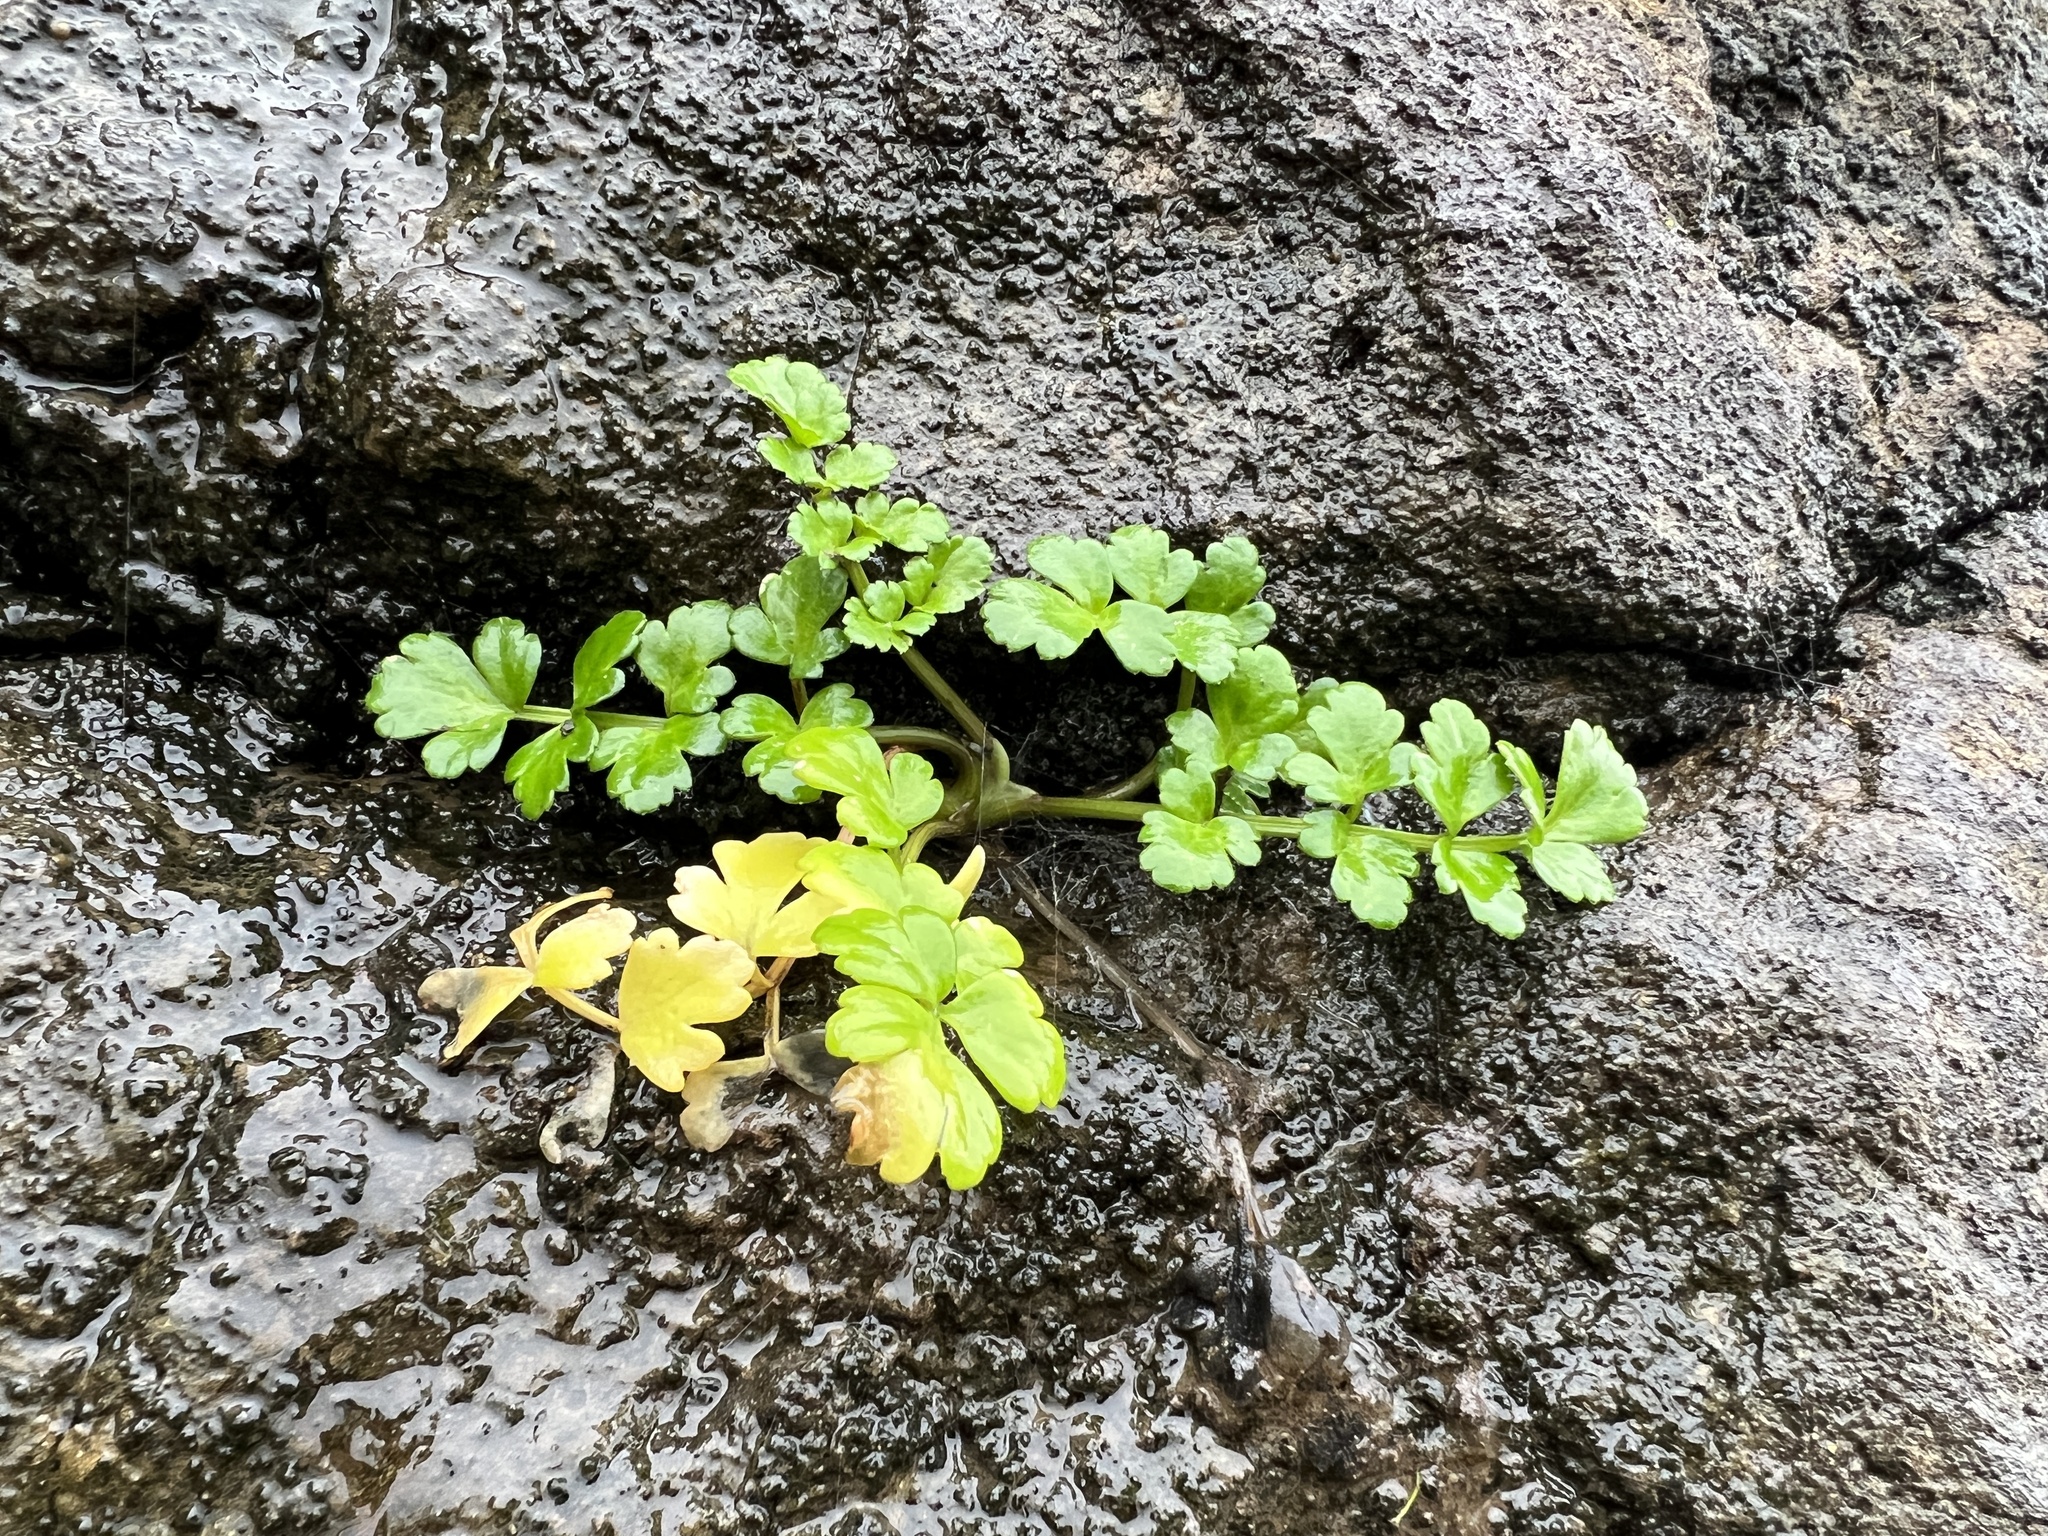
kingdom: Plantae
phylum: Tracheophyta
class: Magnoliopsida
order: Apiales
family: Apiaceae
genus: Apium
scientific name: Apium prostratum
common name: Prostrate marshwort
